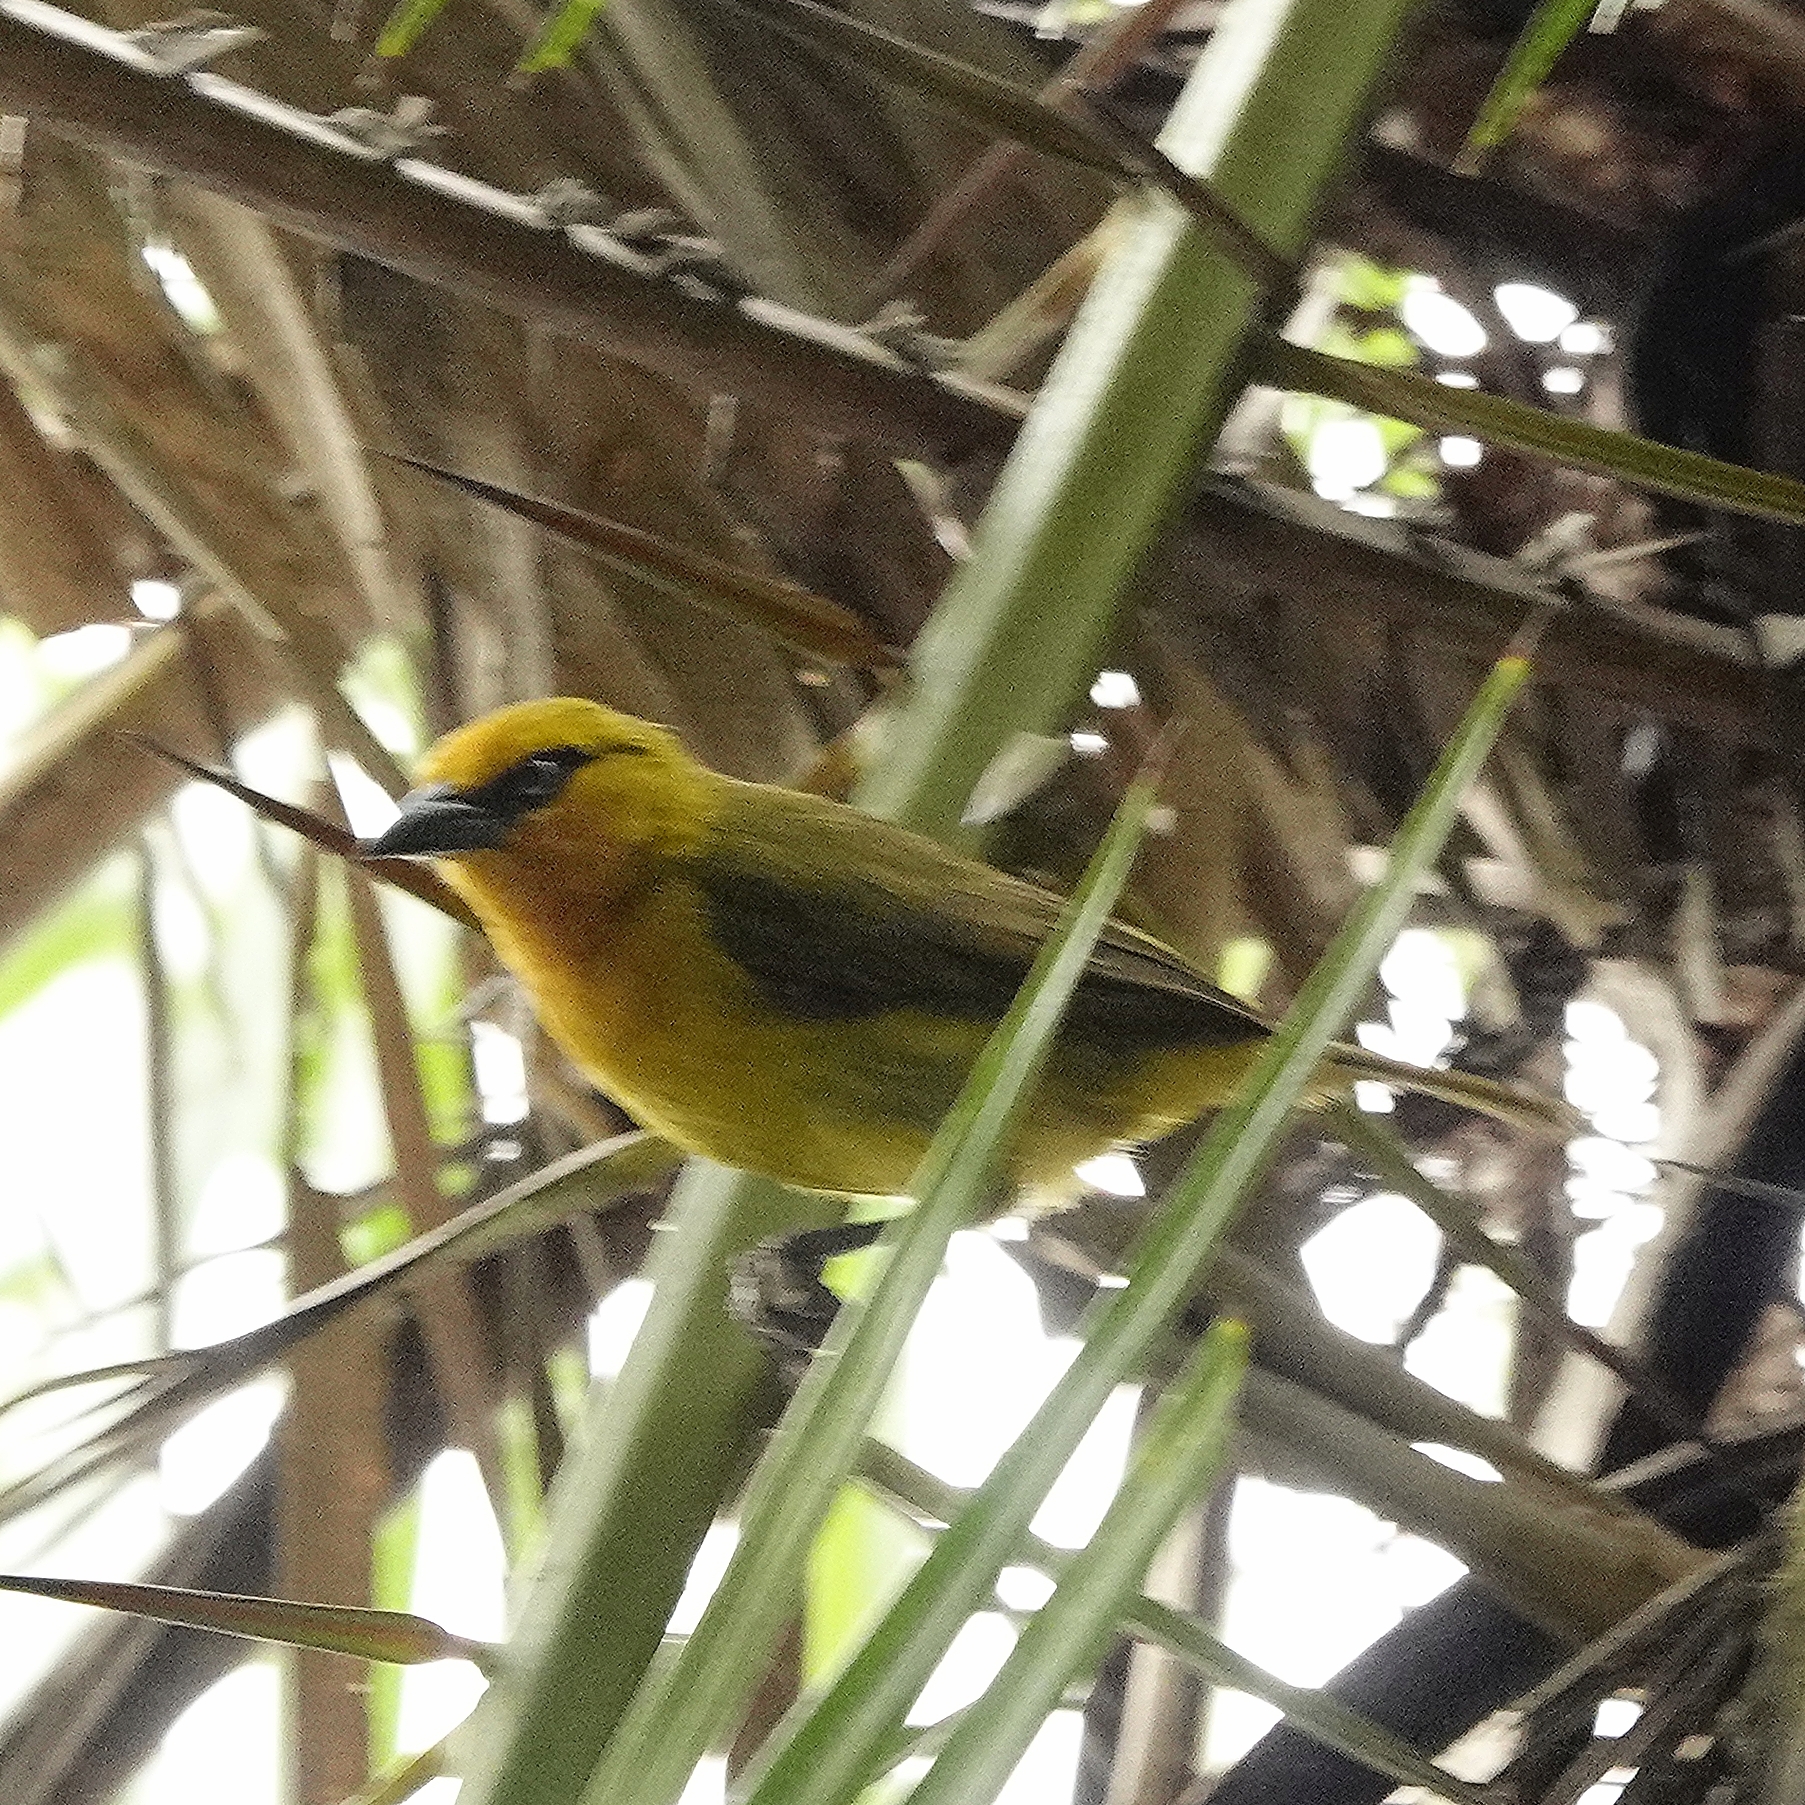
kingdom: Animalia
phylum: Chordata
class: Aves
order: Passeriformes
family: Ploceidae
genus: Ploceus
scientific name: Ploceus ocularis
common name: Spectacled weaver
